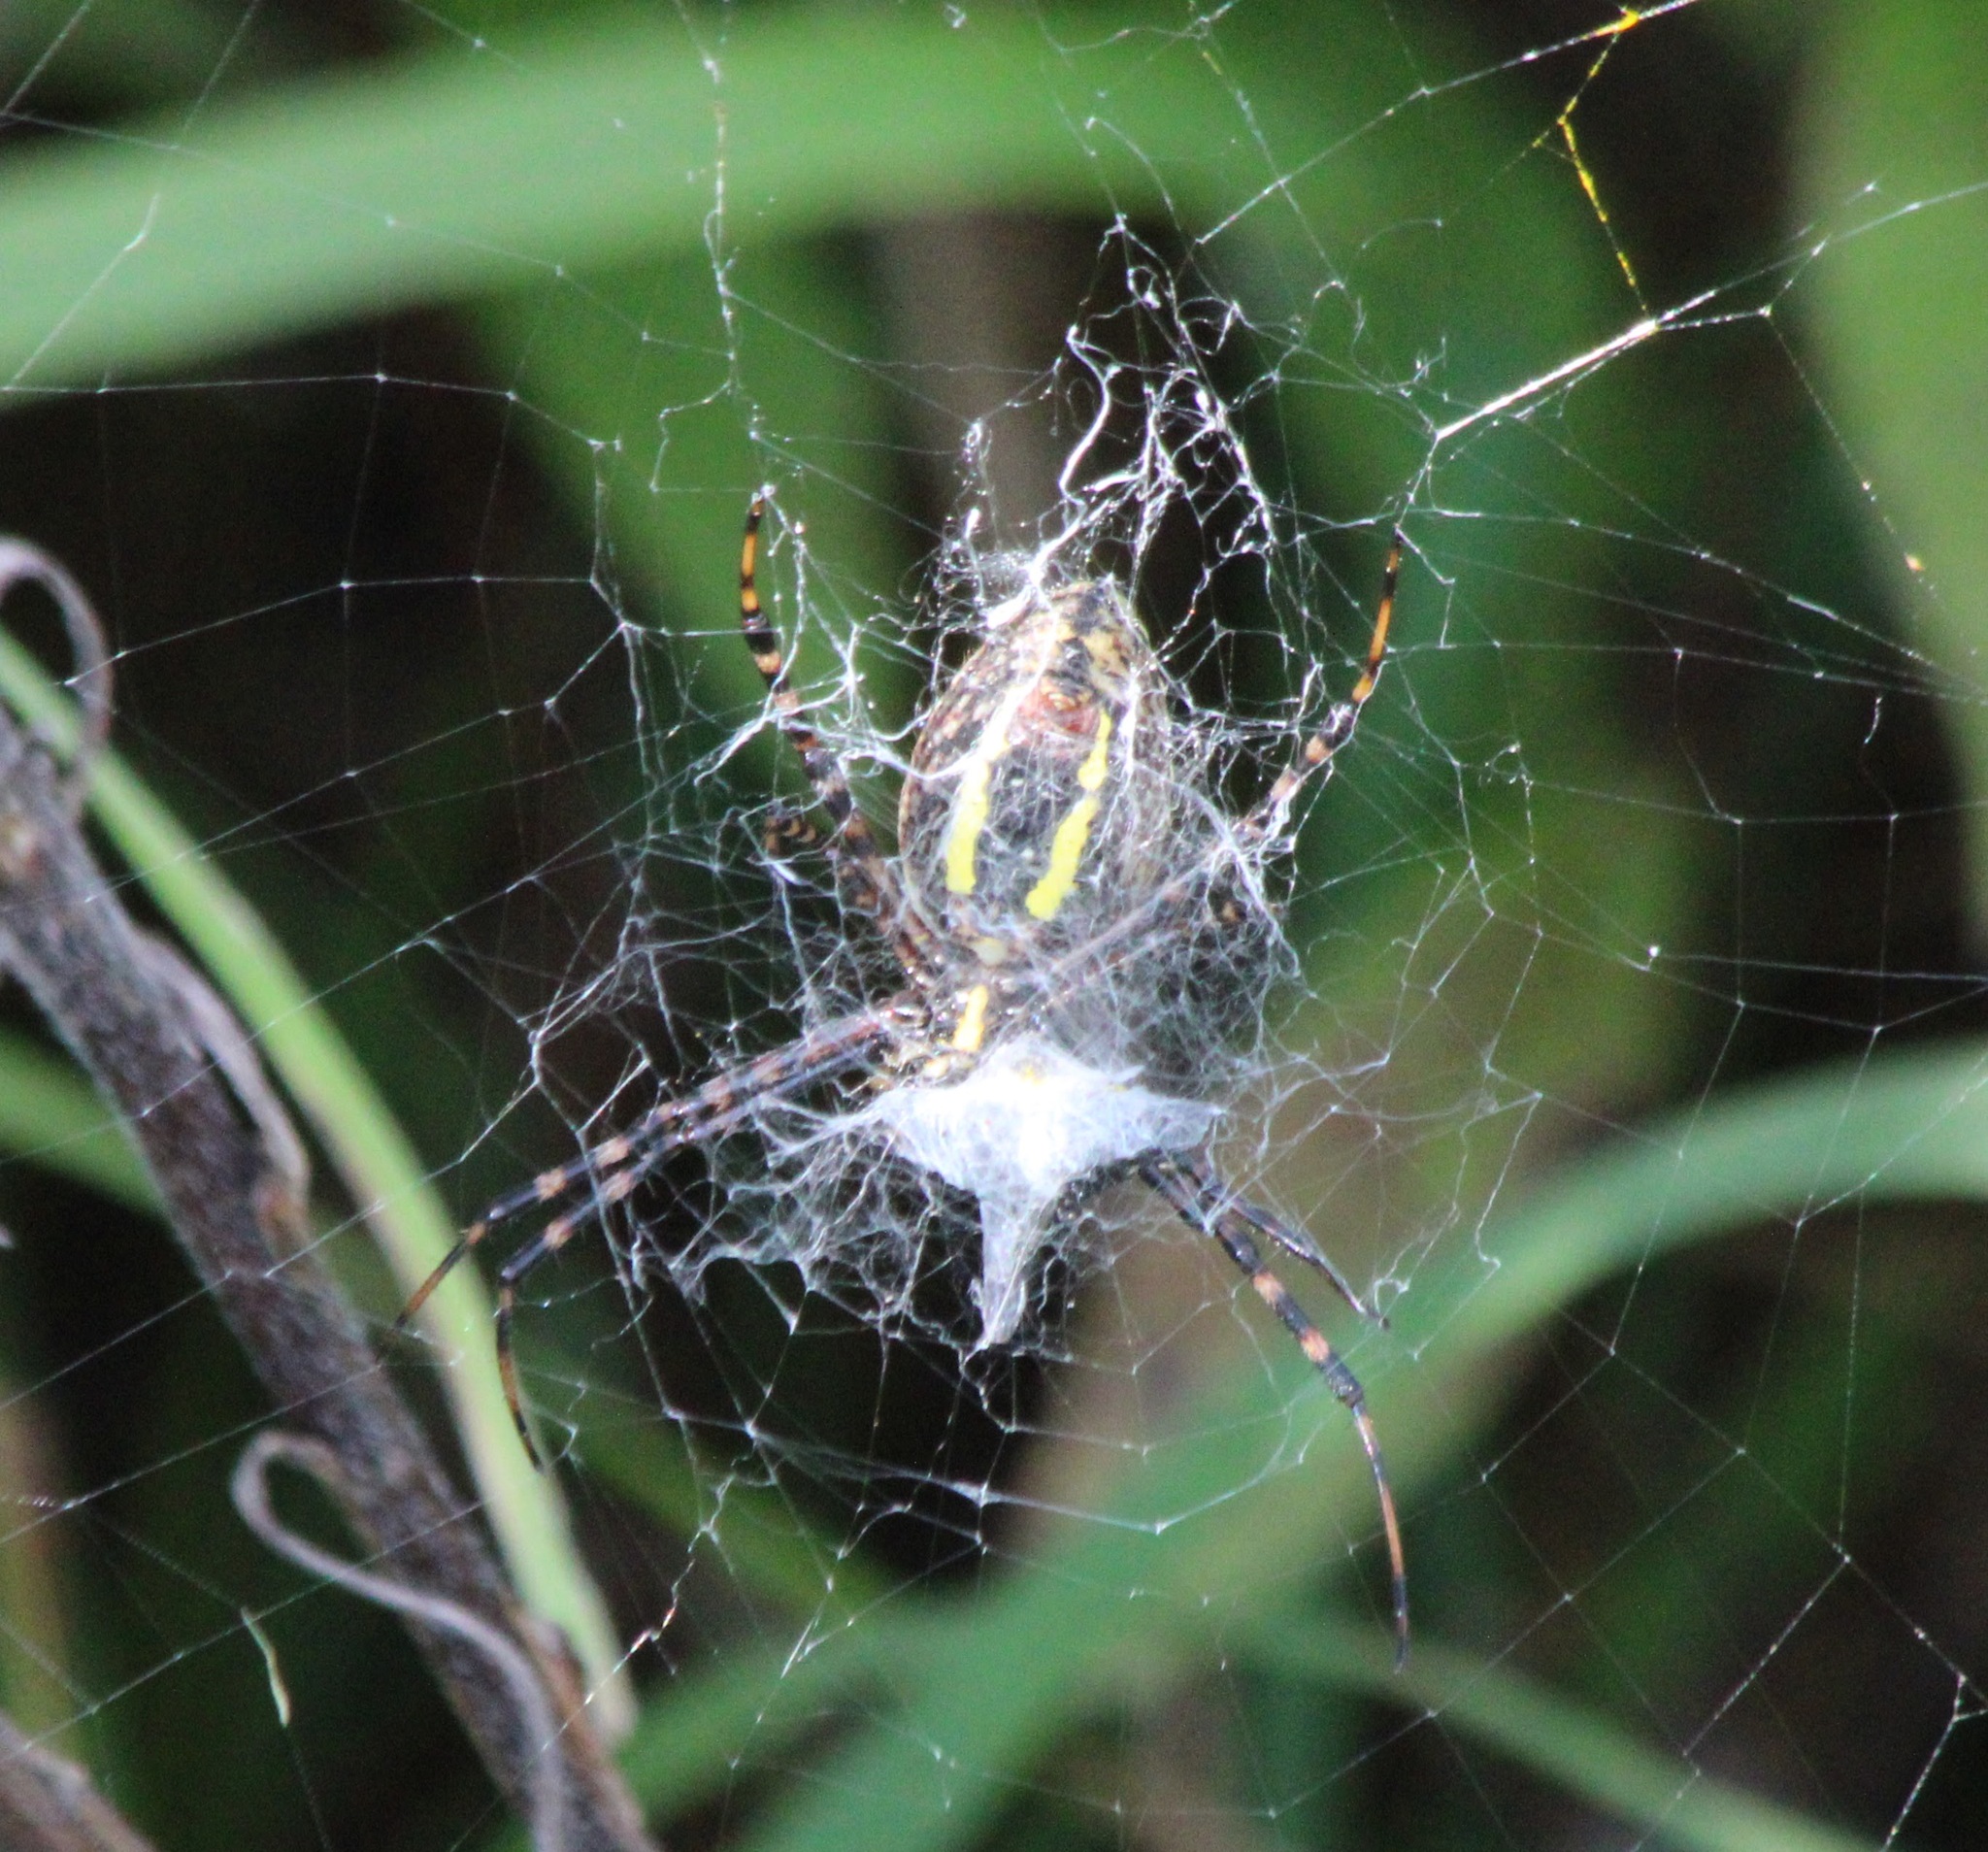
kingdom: Animalia
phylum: Arthropoda
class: Arachnida
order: Araneae
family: Araneidae
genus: Argiope
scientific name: Argiope trifasciata
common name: Banded garden spider
